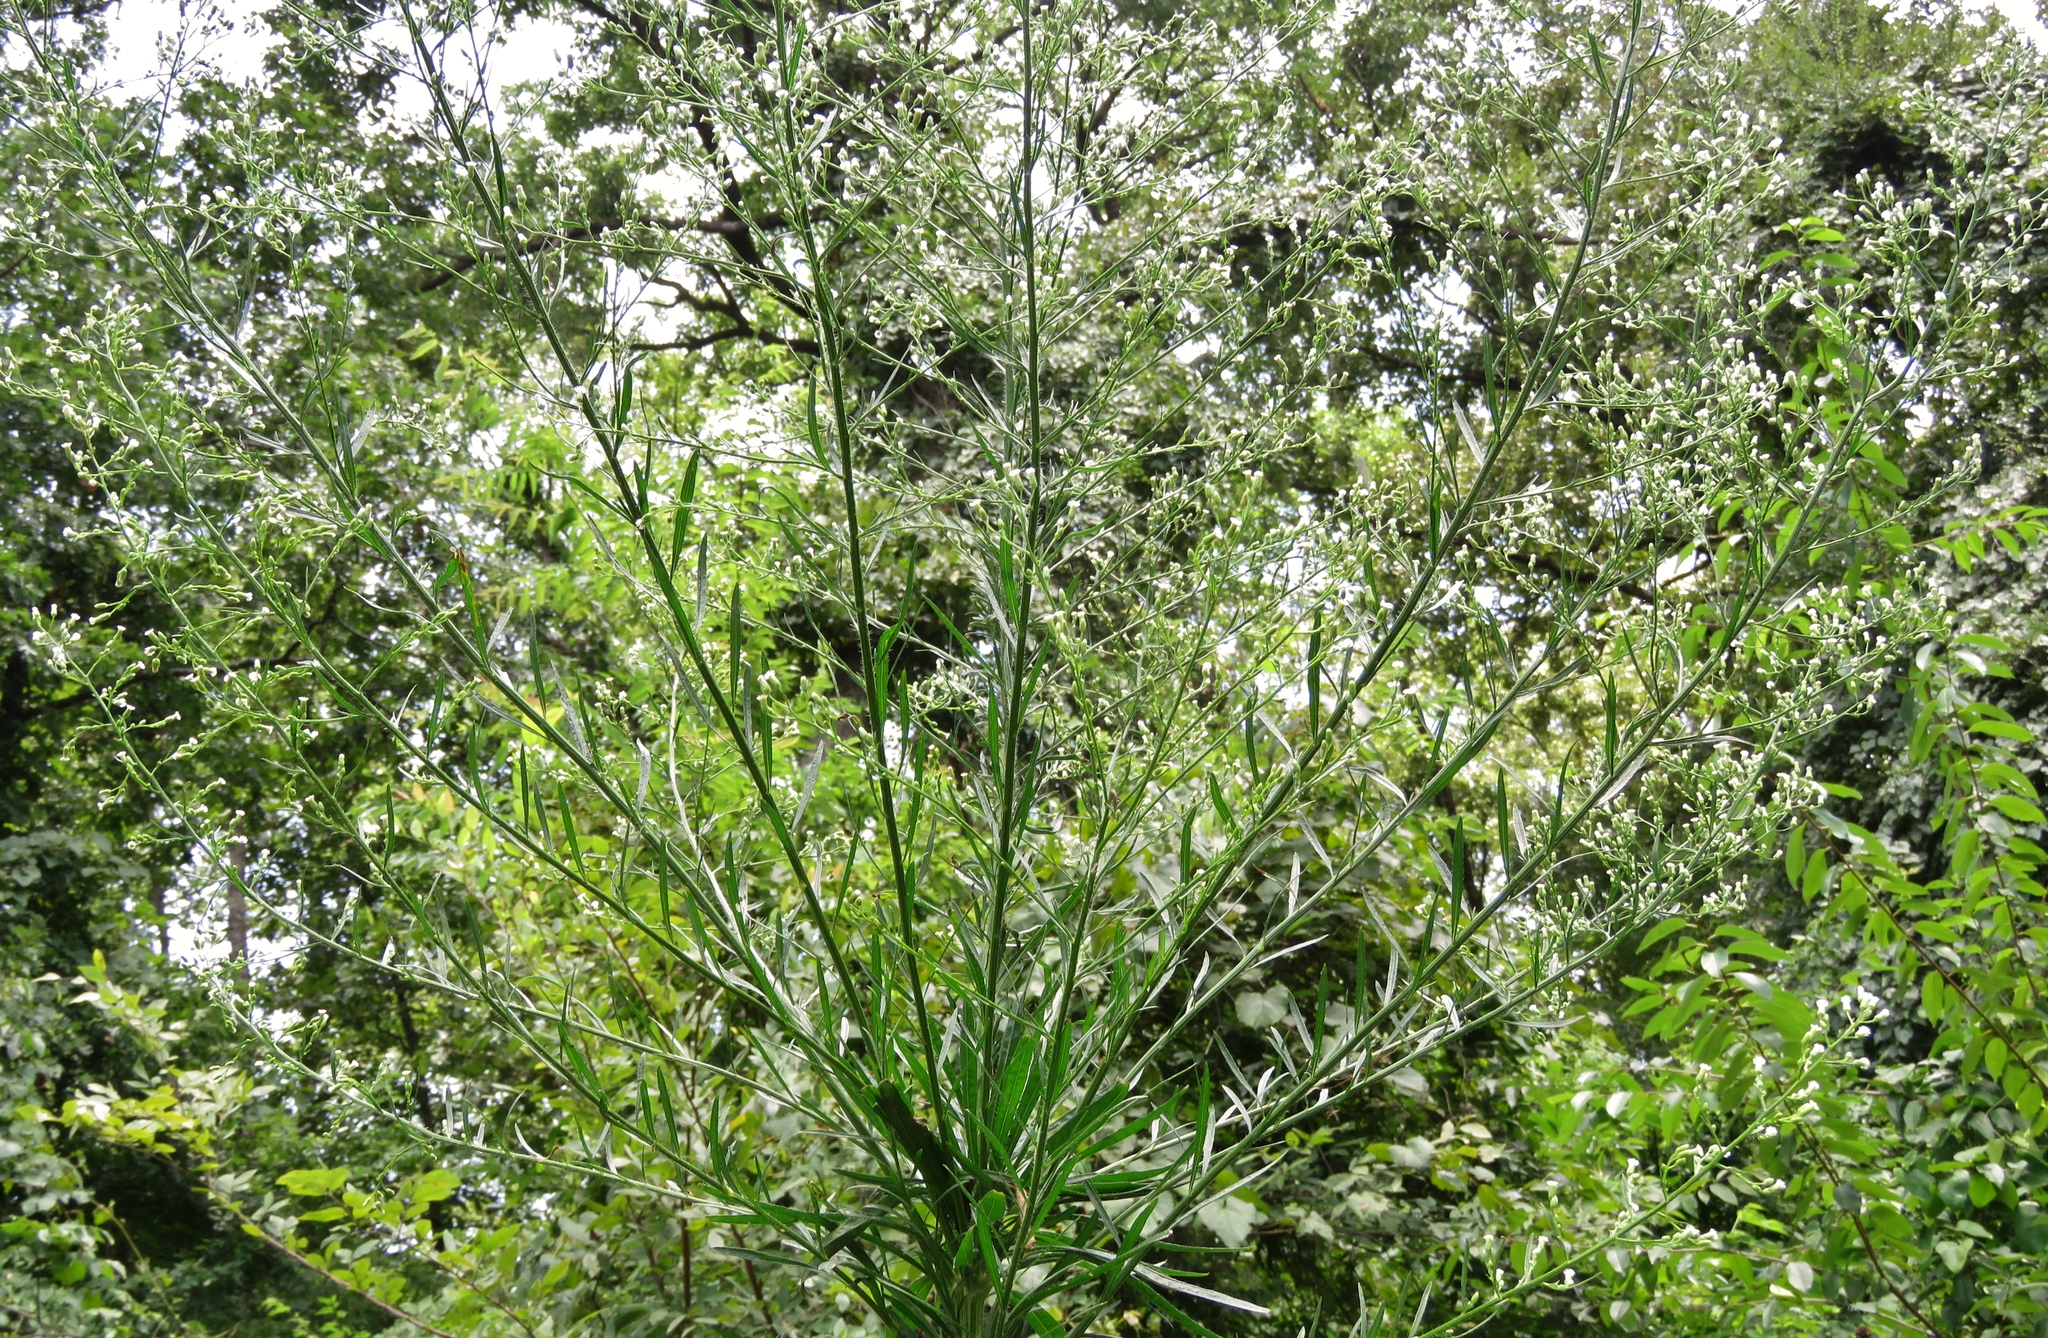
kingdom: Plantae
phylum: Tracheophyta
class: Magnoliopsida
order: Asterales
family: Asteraceae
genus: Erigeron
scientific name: Erigeron canadensis
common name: Canadian fleabane
